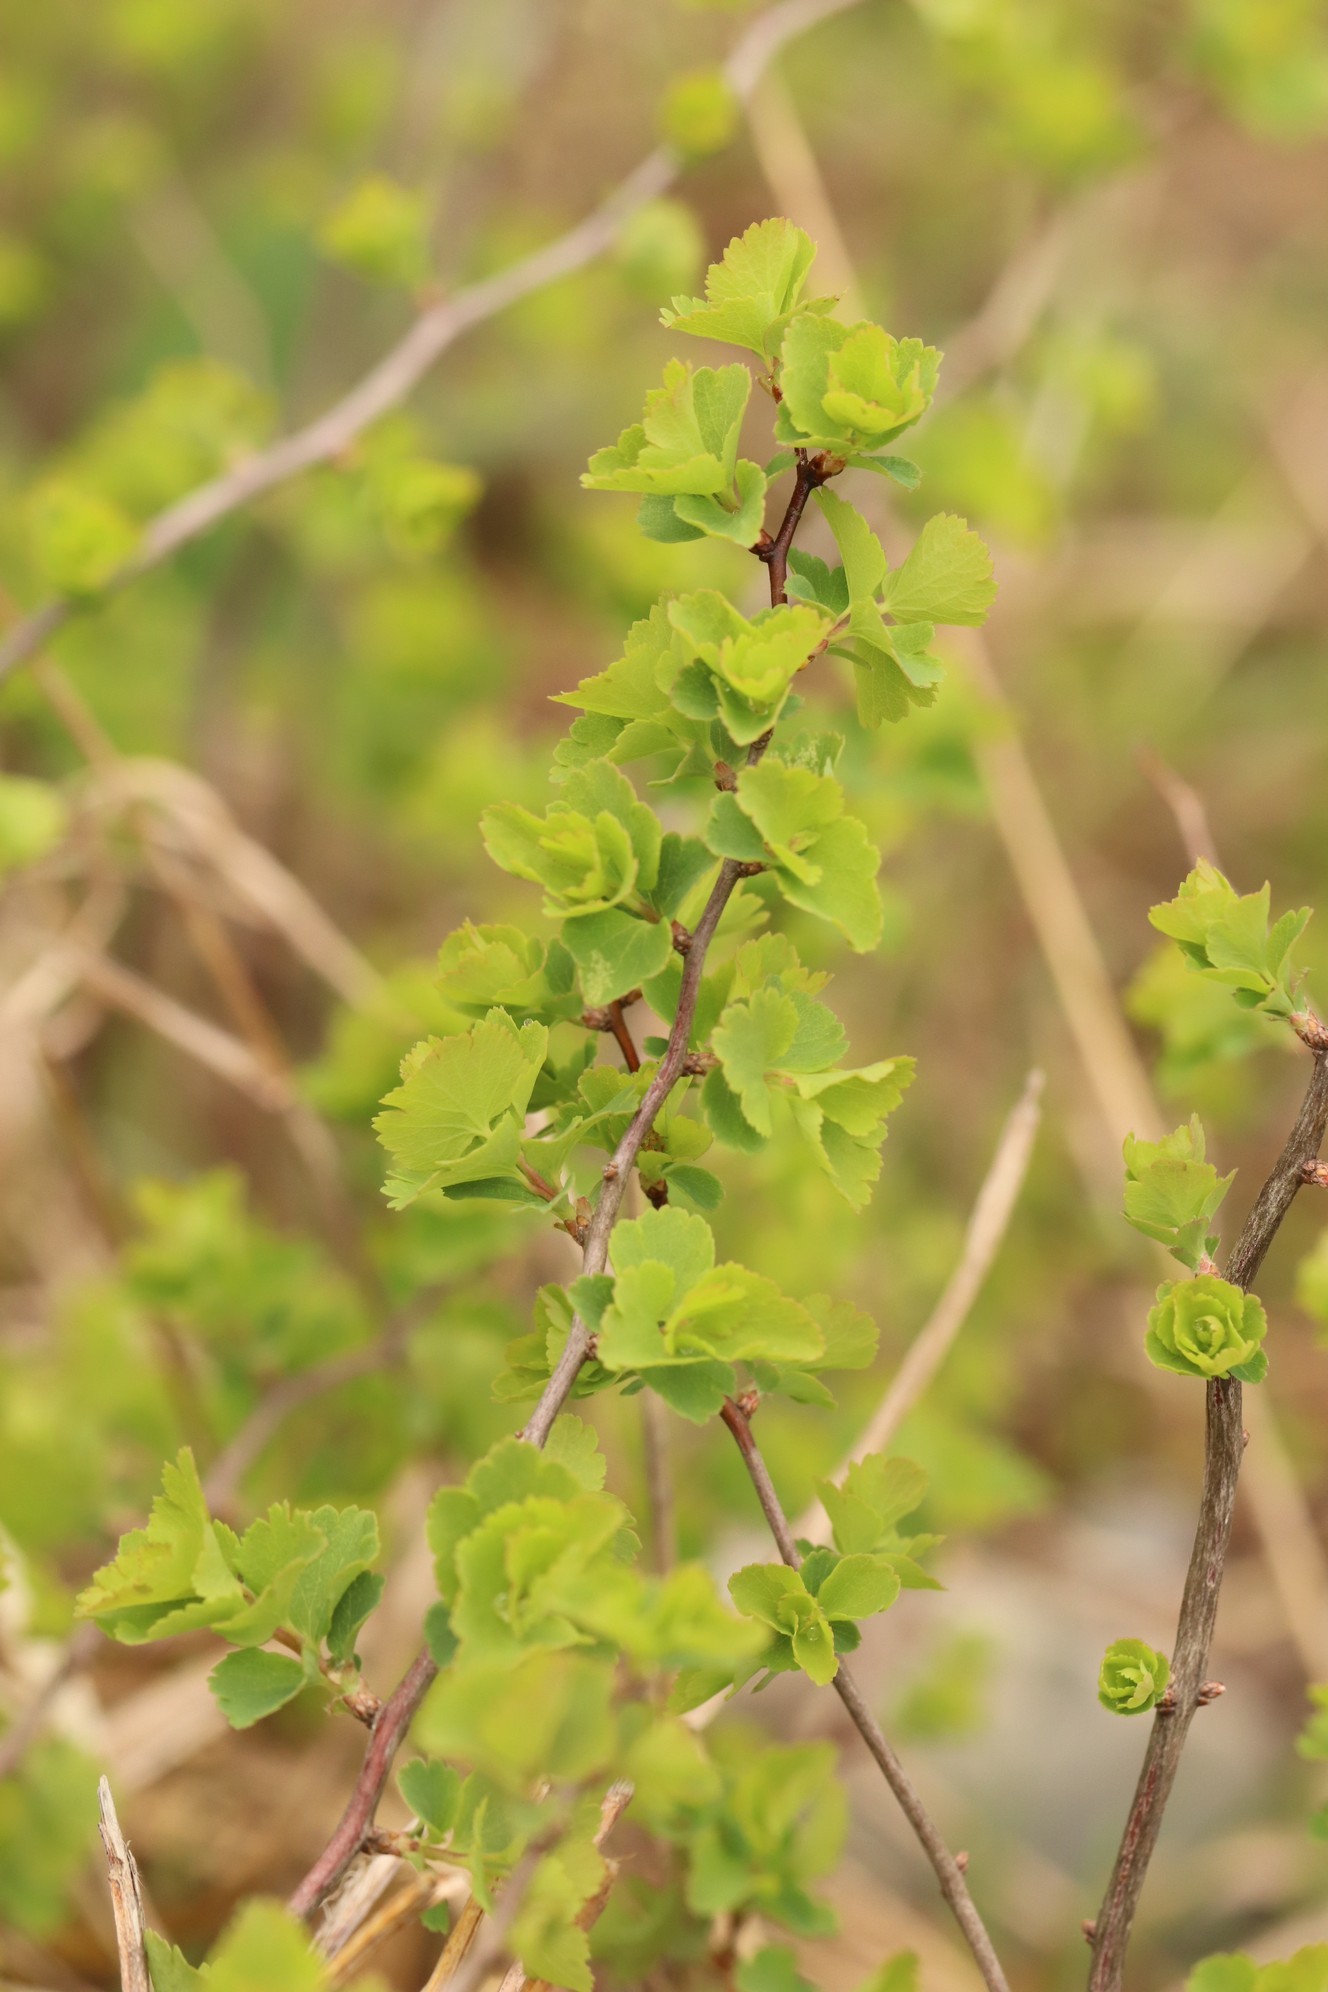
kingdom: Plantae
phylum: Tracheophyta
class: Magnoliopsida
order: Rosales
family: Rosaceae
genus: Spiraea
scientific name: Spiraea trilobata
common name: Asian meadowsweet
